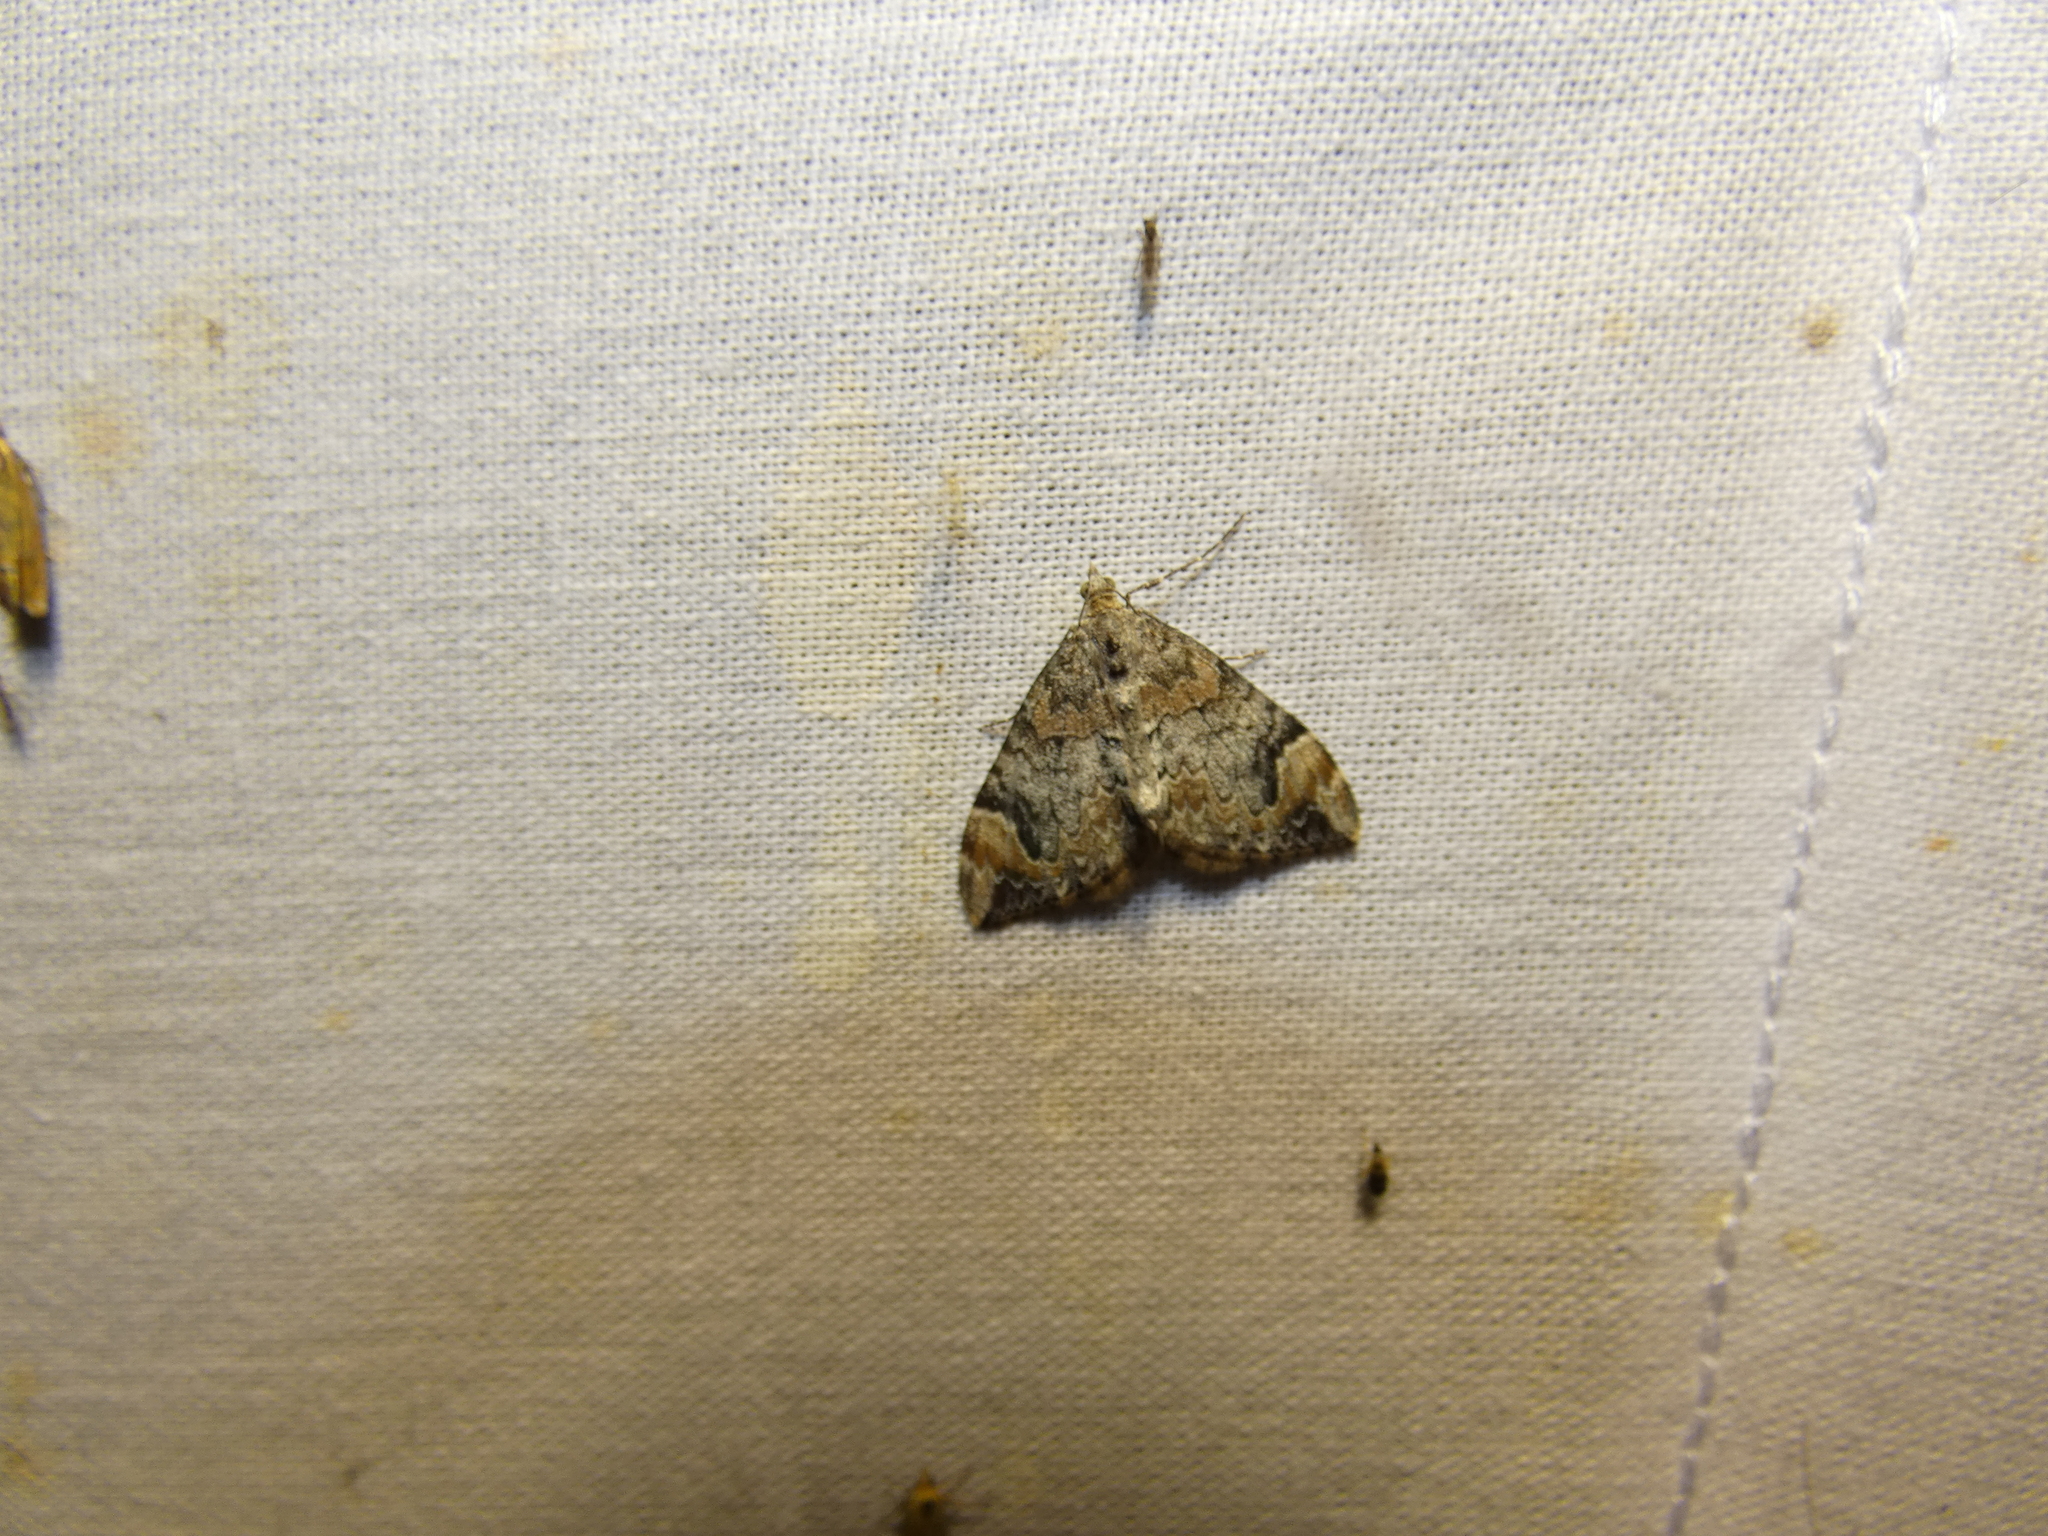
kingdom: Animalia
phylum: Arthropoda
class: Insecta
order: Lepidoptera
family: Geometridae
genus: Dysstroma
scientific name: Dysstroma citrata
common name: Dark marbled carpet
